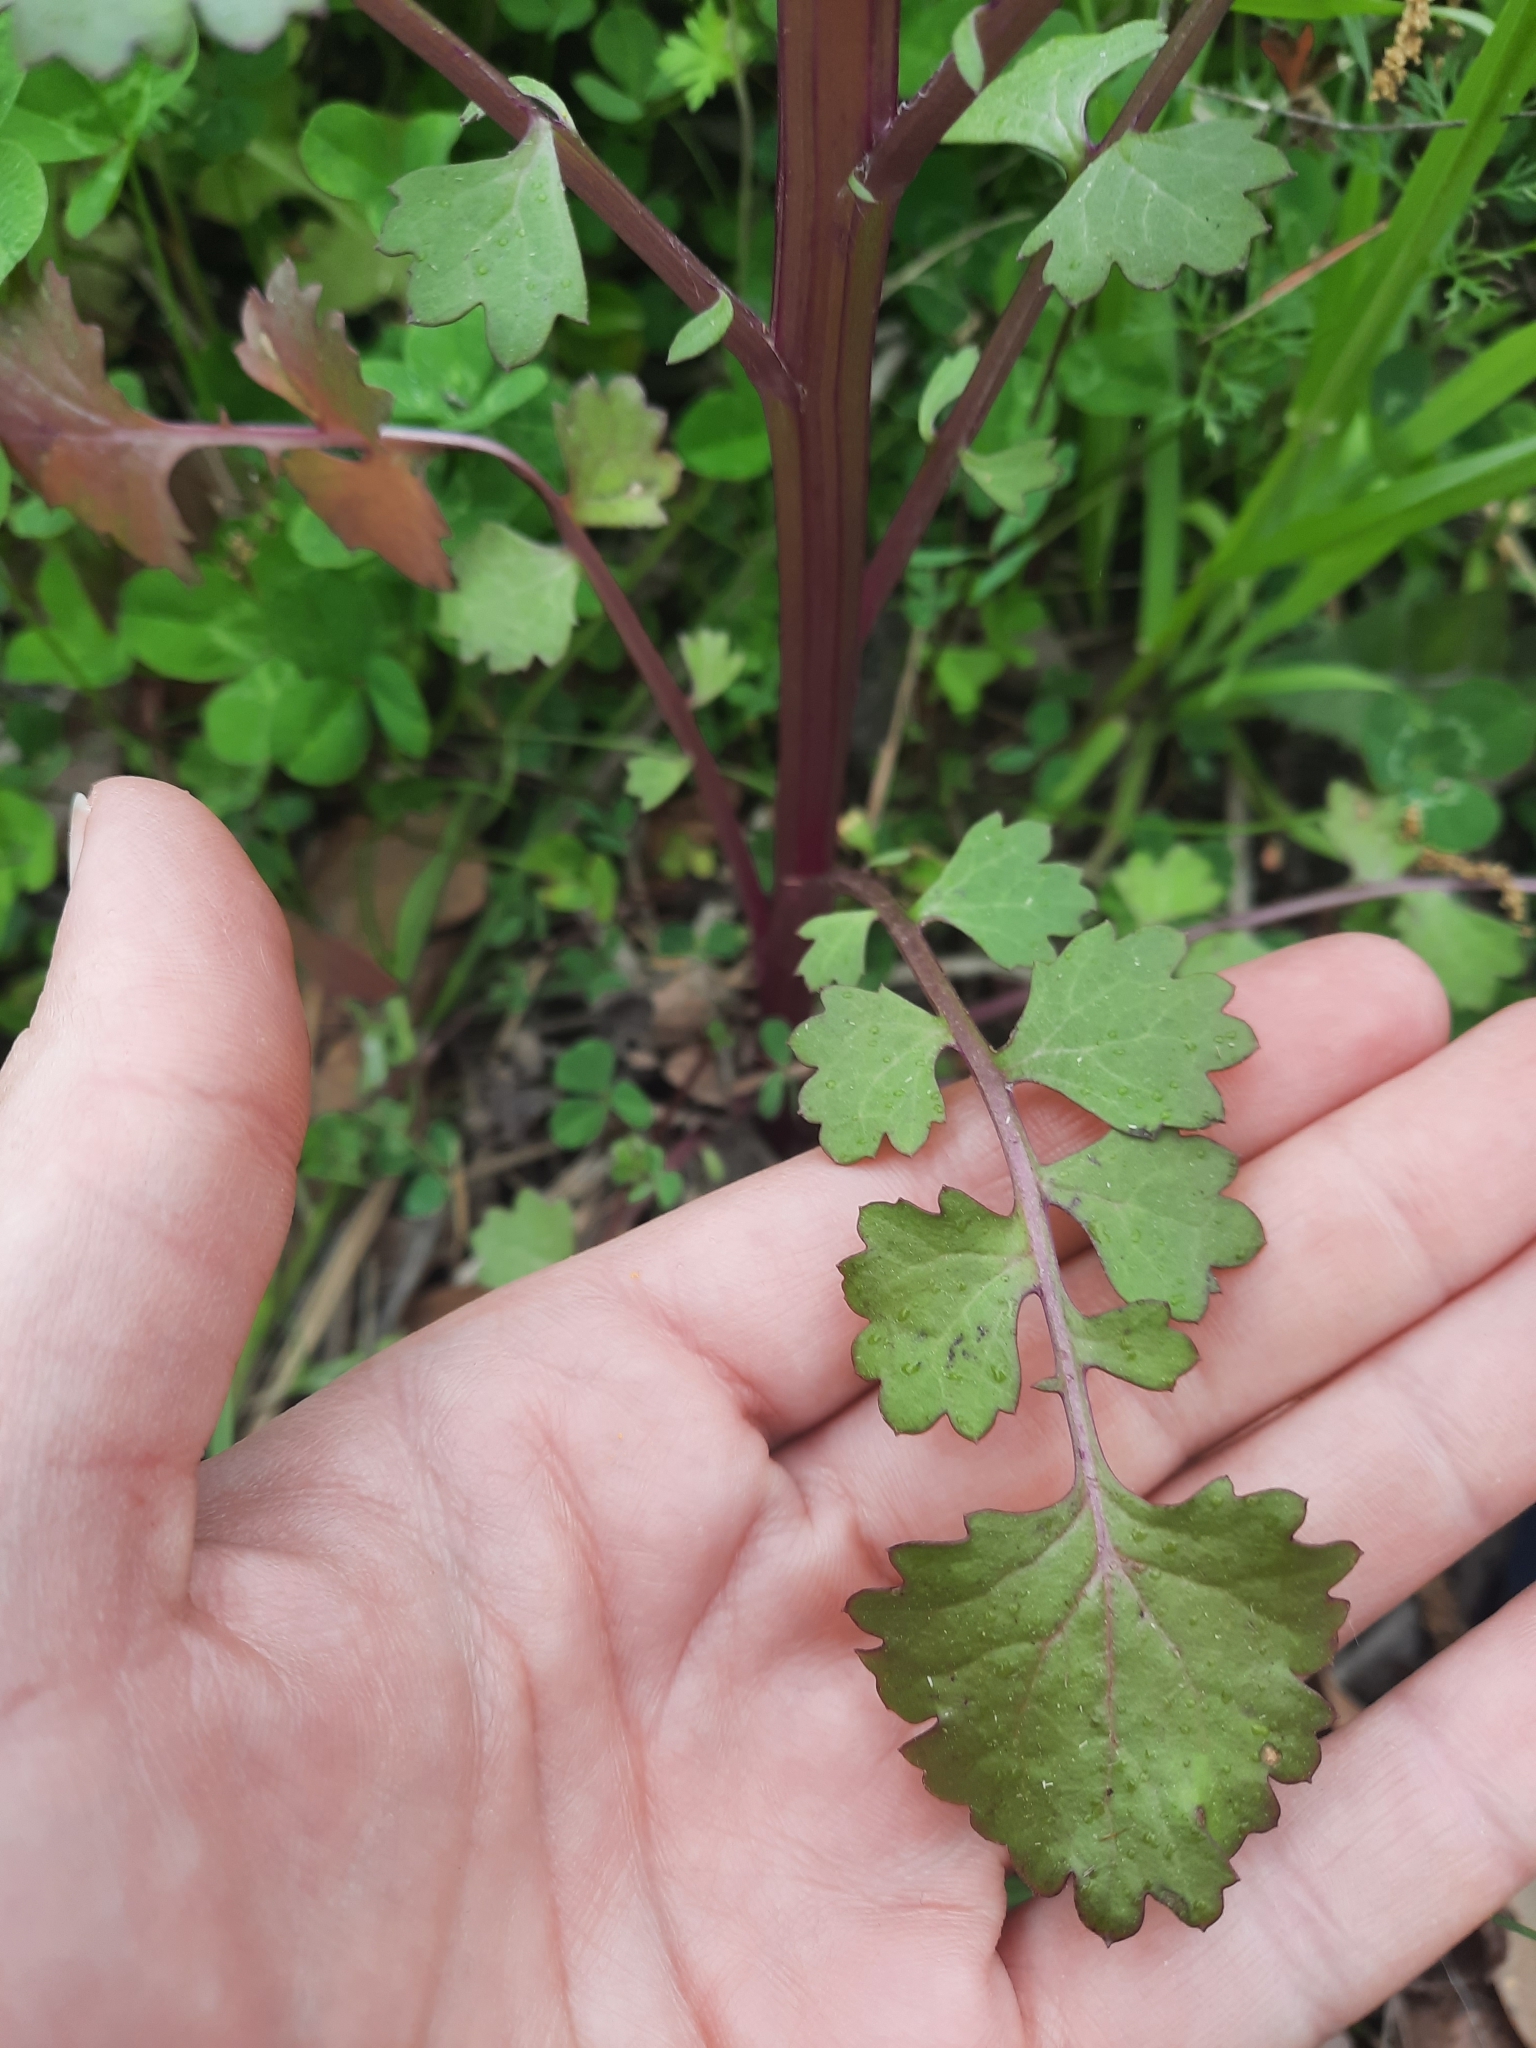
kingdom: Plantae
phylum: Tracheophyta
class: Magnoliopsida
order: Asterales
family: Asteraceae
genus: Packera
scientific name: Packera glabella
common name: Butterweed
